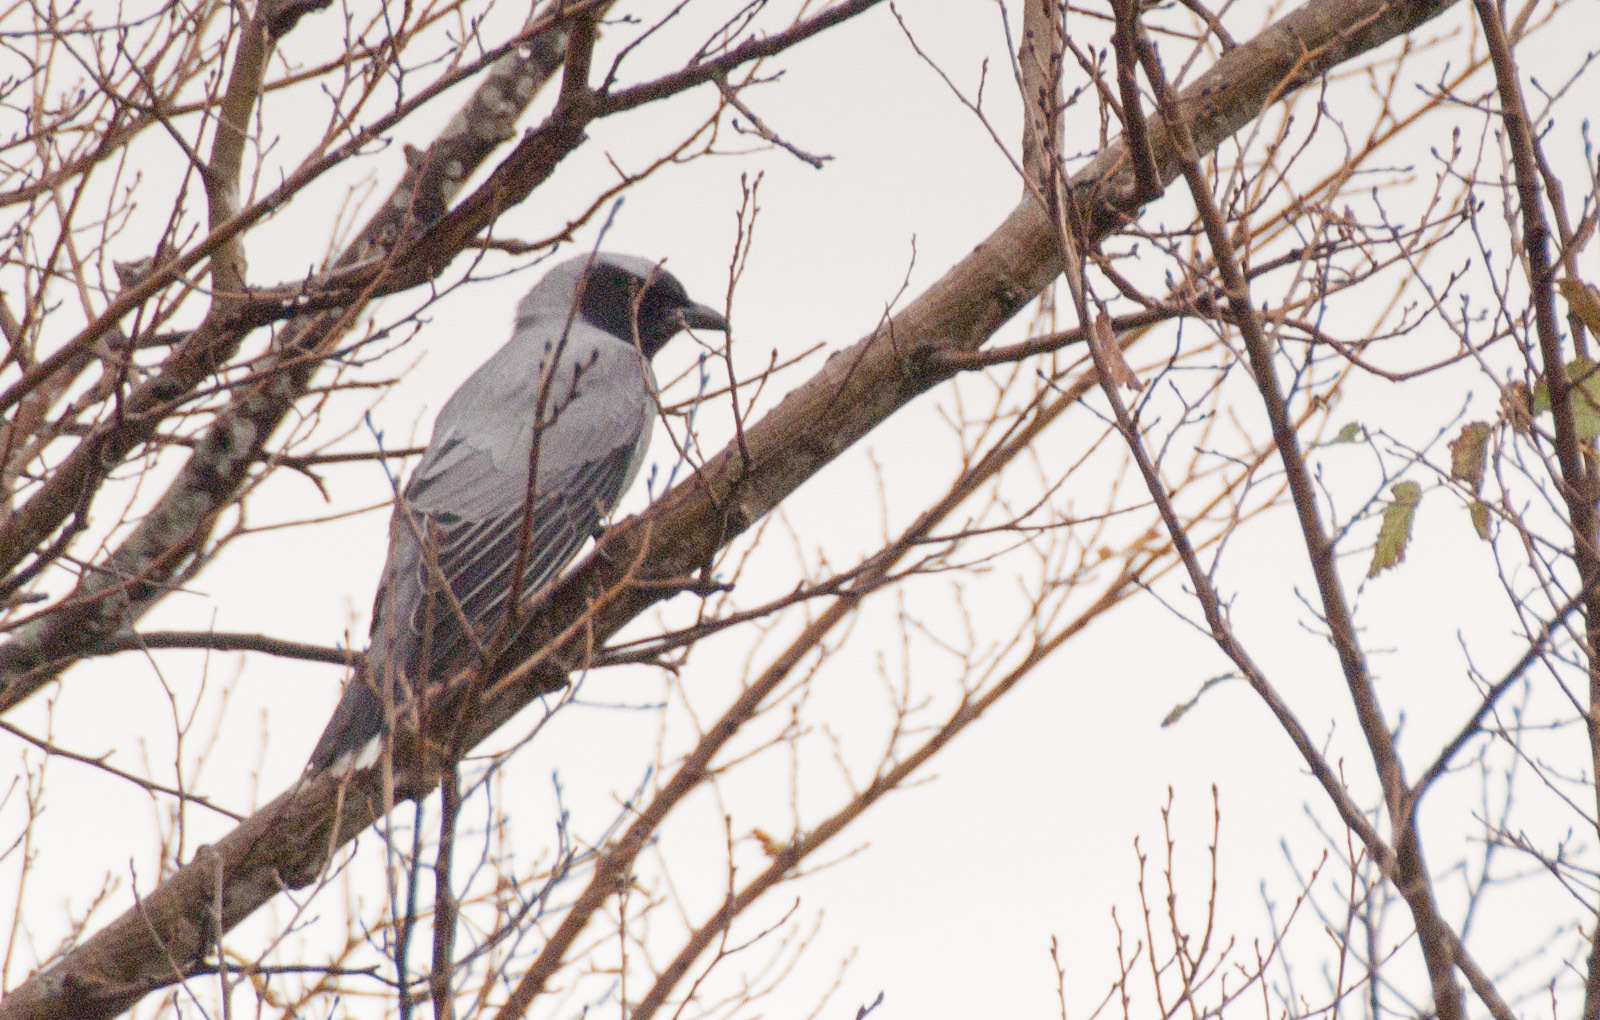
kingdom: Animalia
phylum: Chordata
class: Aves
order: Passeriformes
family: Campephagidae
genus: Coracina
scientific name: Coracina novaehollandiae
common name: Black-faced cuckooshrike
